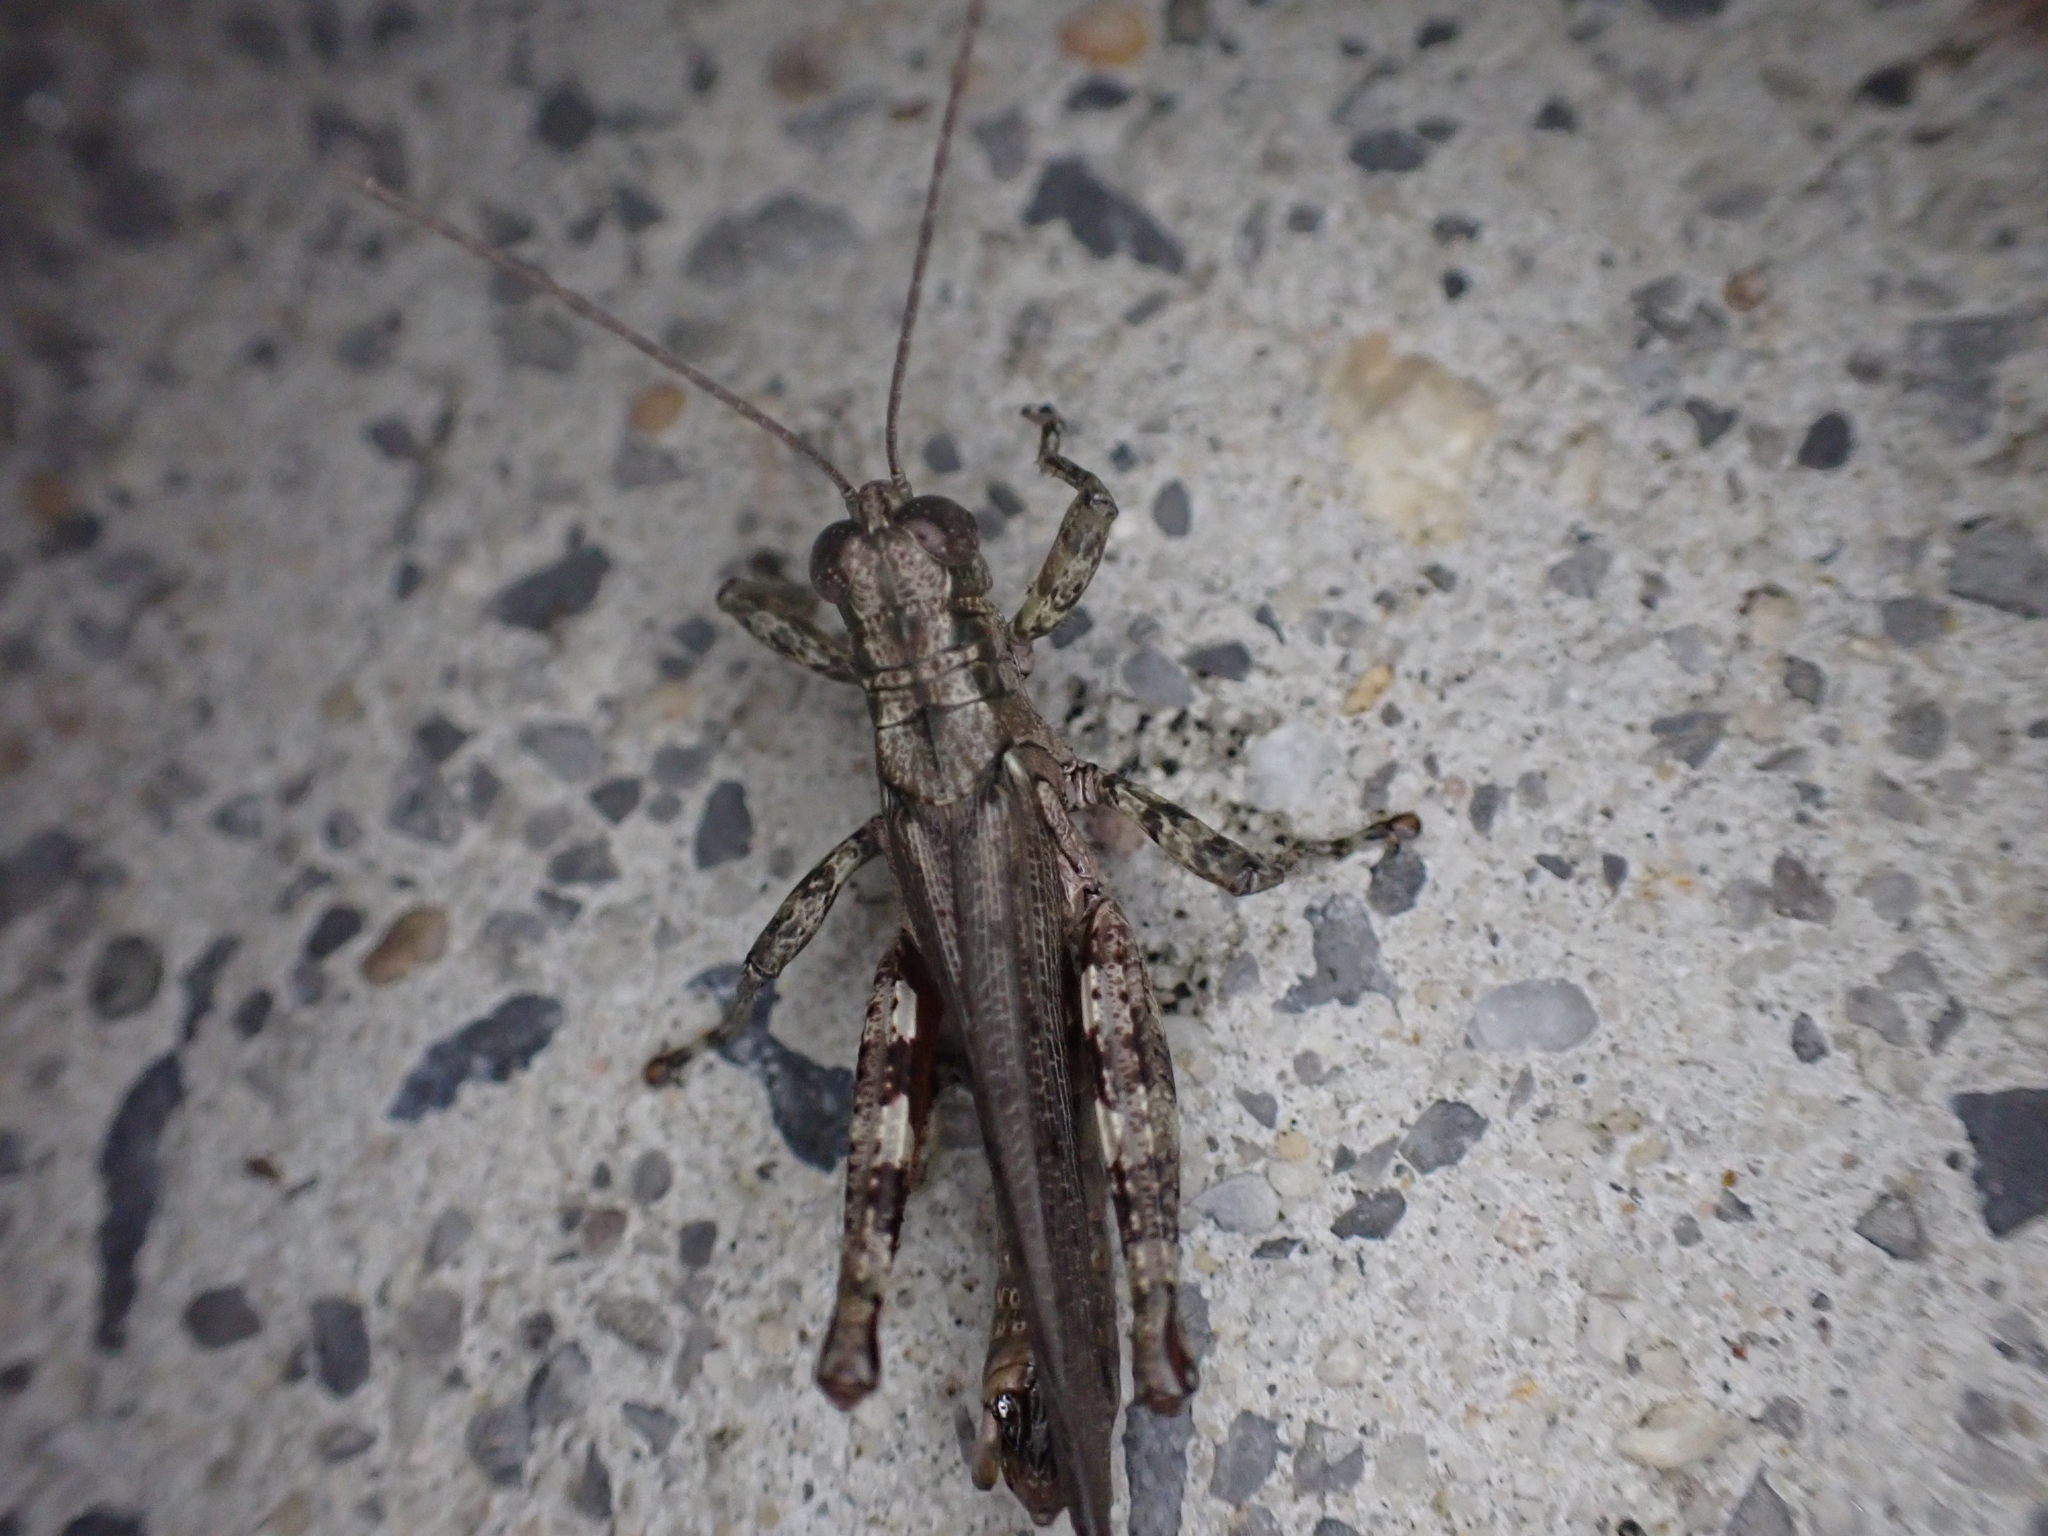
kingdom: Animalia
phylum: Arthropoda
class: Insecta
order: Orthoptera
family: Acrididae
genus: Melanoplus
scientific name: Melanoplus punctulatus
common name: Pine-tree spur-throat grasshopper
